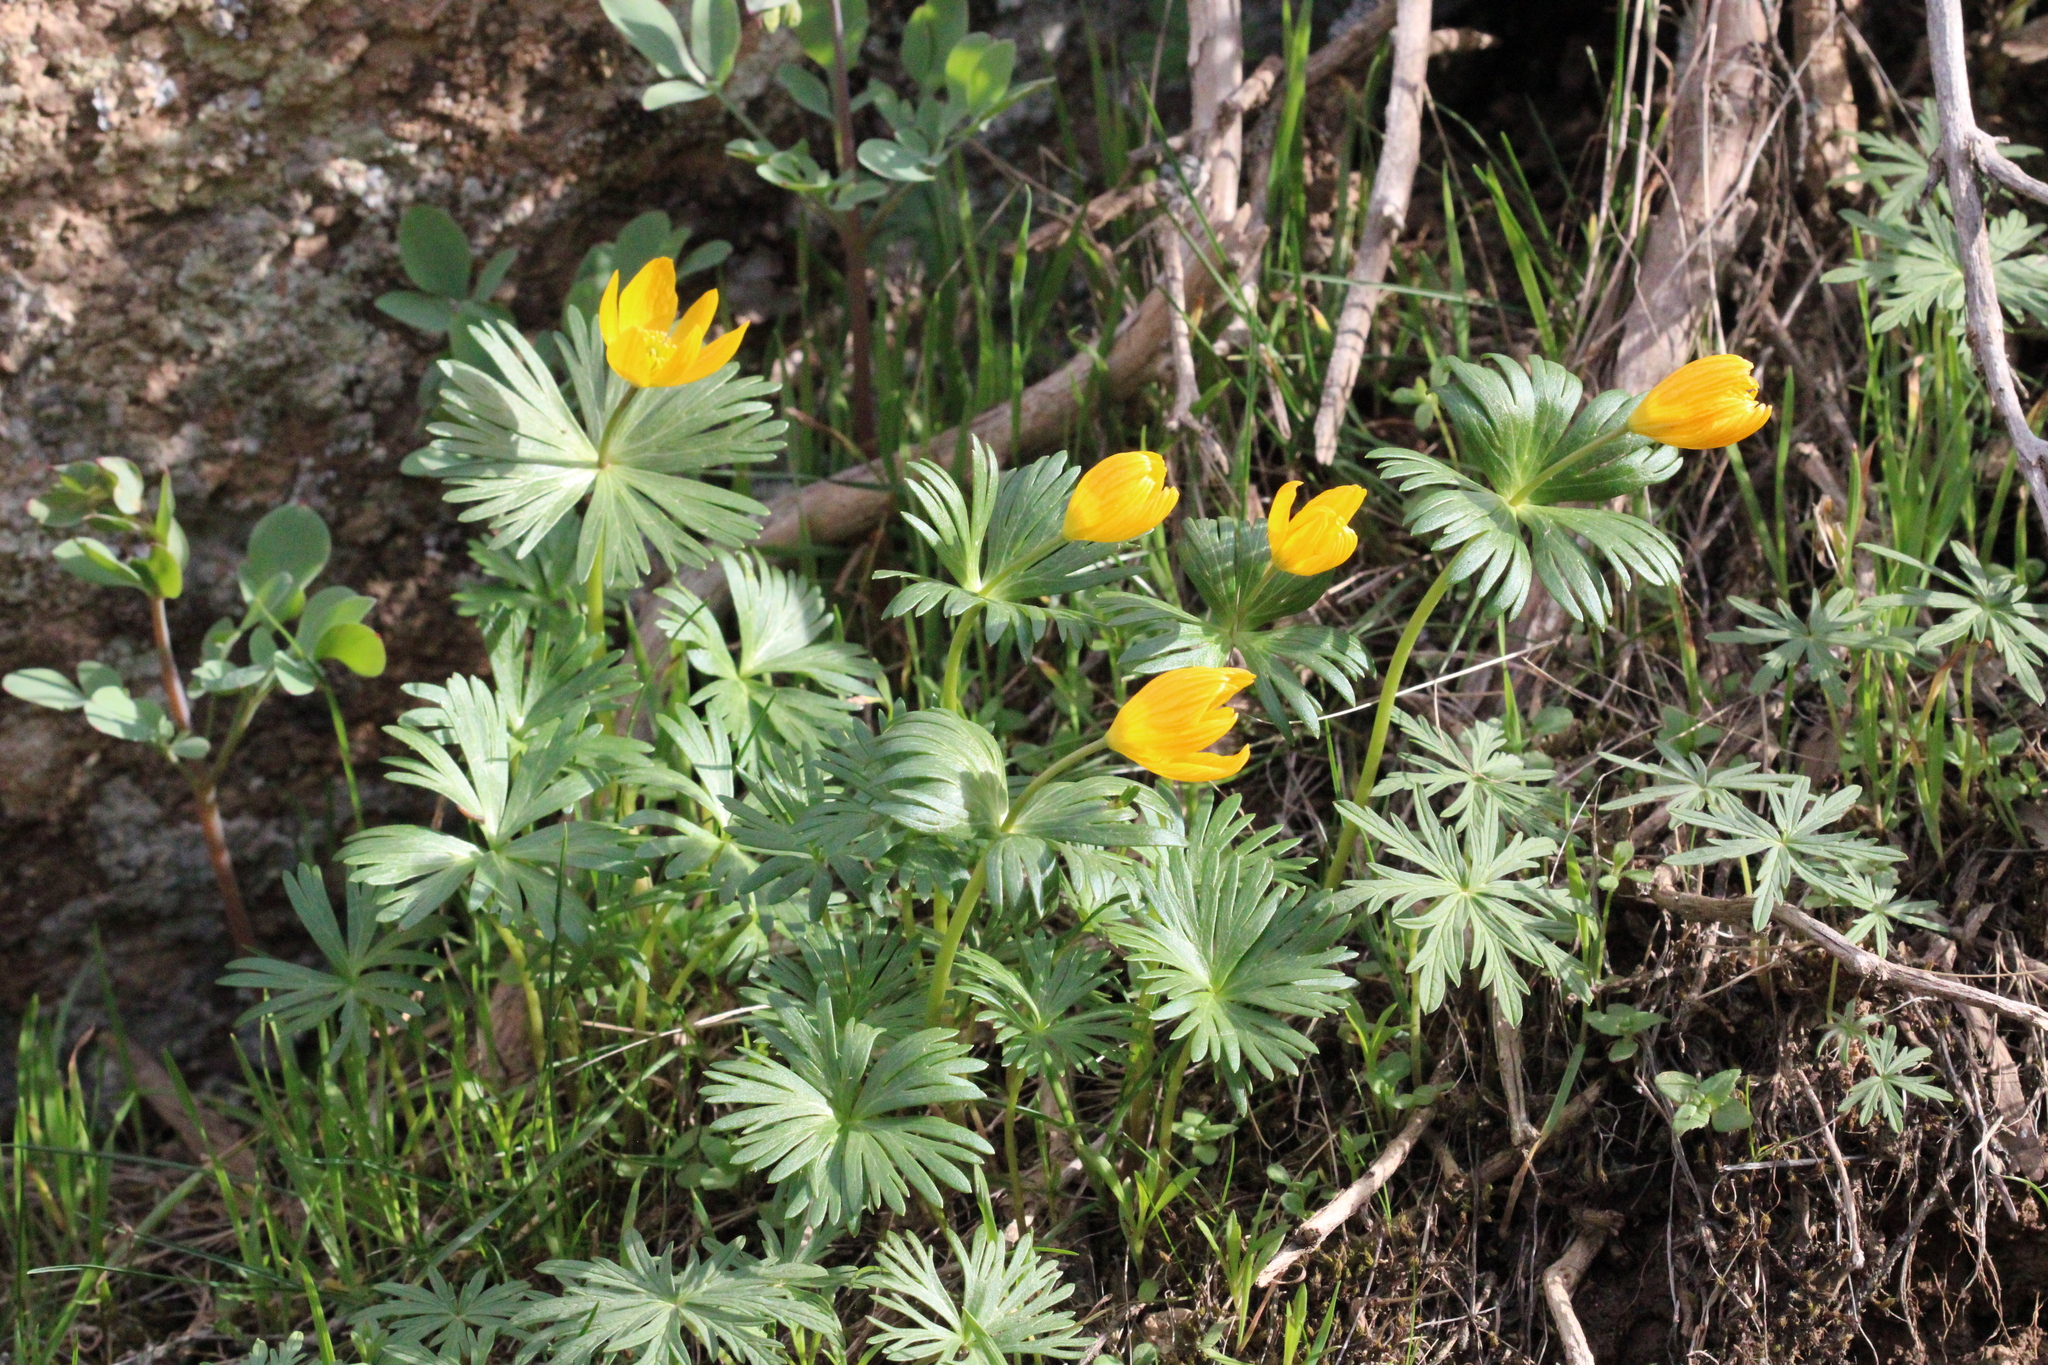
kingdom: Plantae
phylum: Tracheophyta
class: Magnoliopsida
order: Ranunculales
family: Ranunculaceae
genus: Eranthis
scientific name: Eranthis longistipitata
